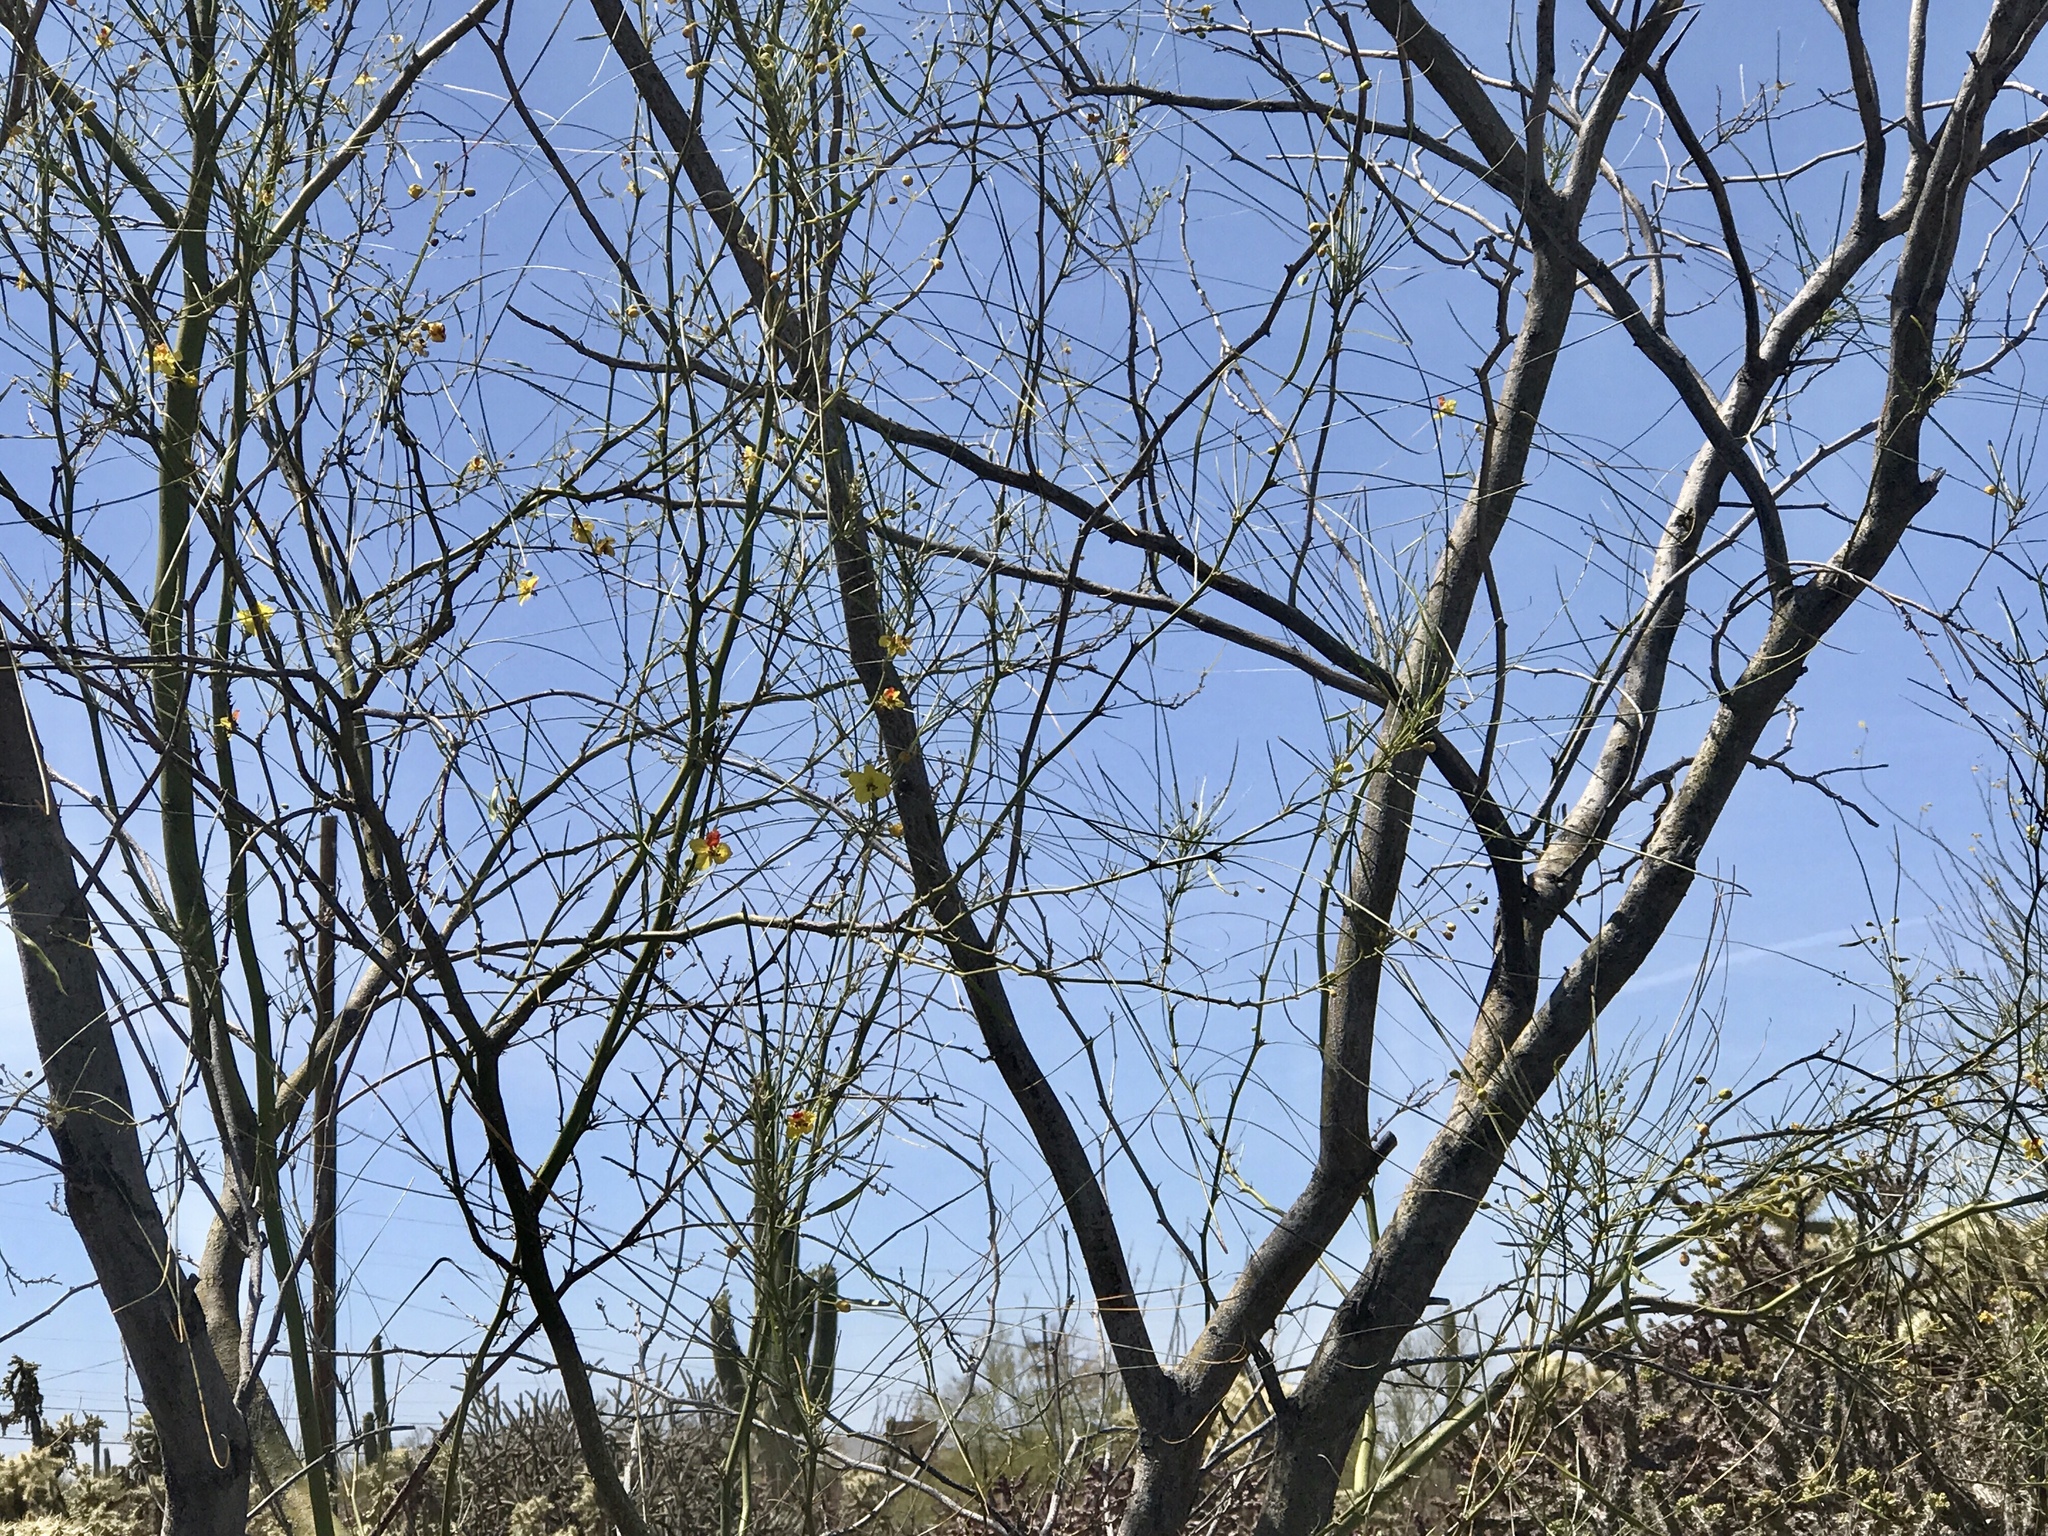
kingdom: Plantae
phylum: Tracheophyta
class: Magnoliopsida
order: Fabales
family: Fabaceae
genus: Parkinsonia
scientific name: Parkinsonia aculeata
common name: Jerusalem thorn
